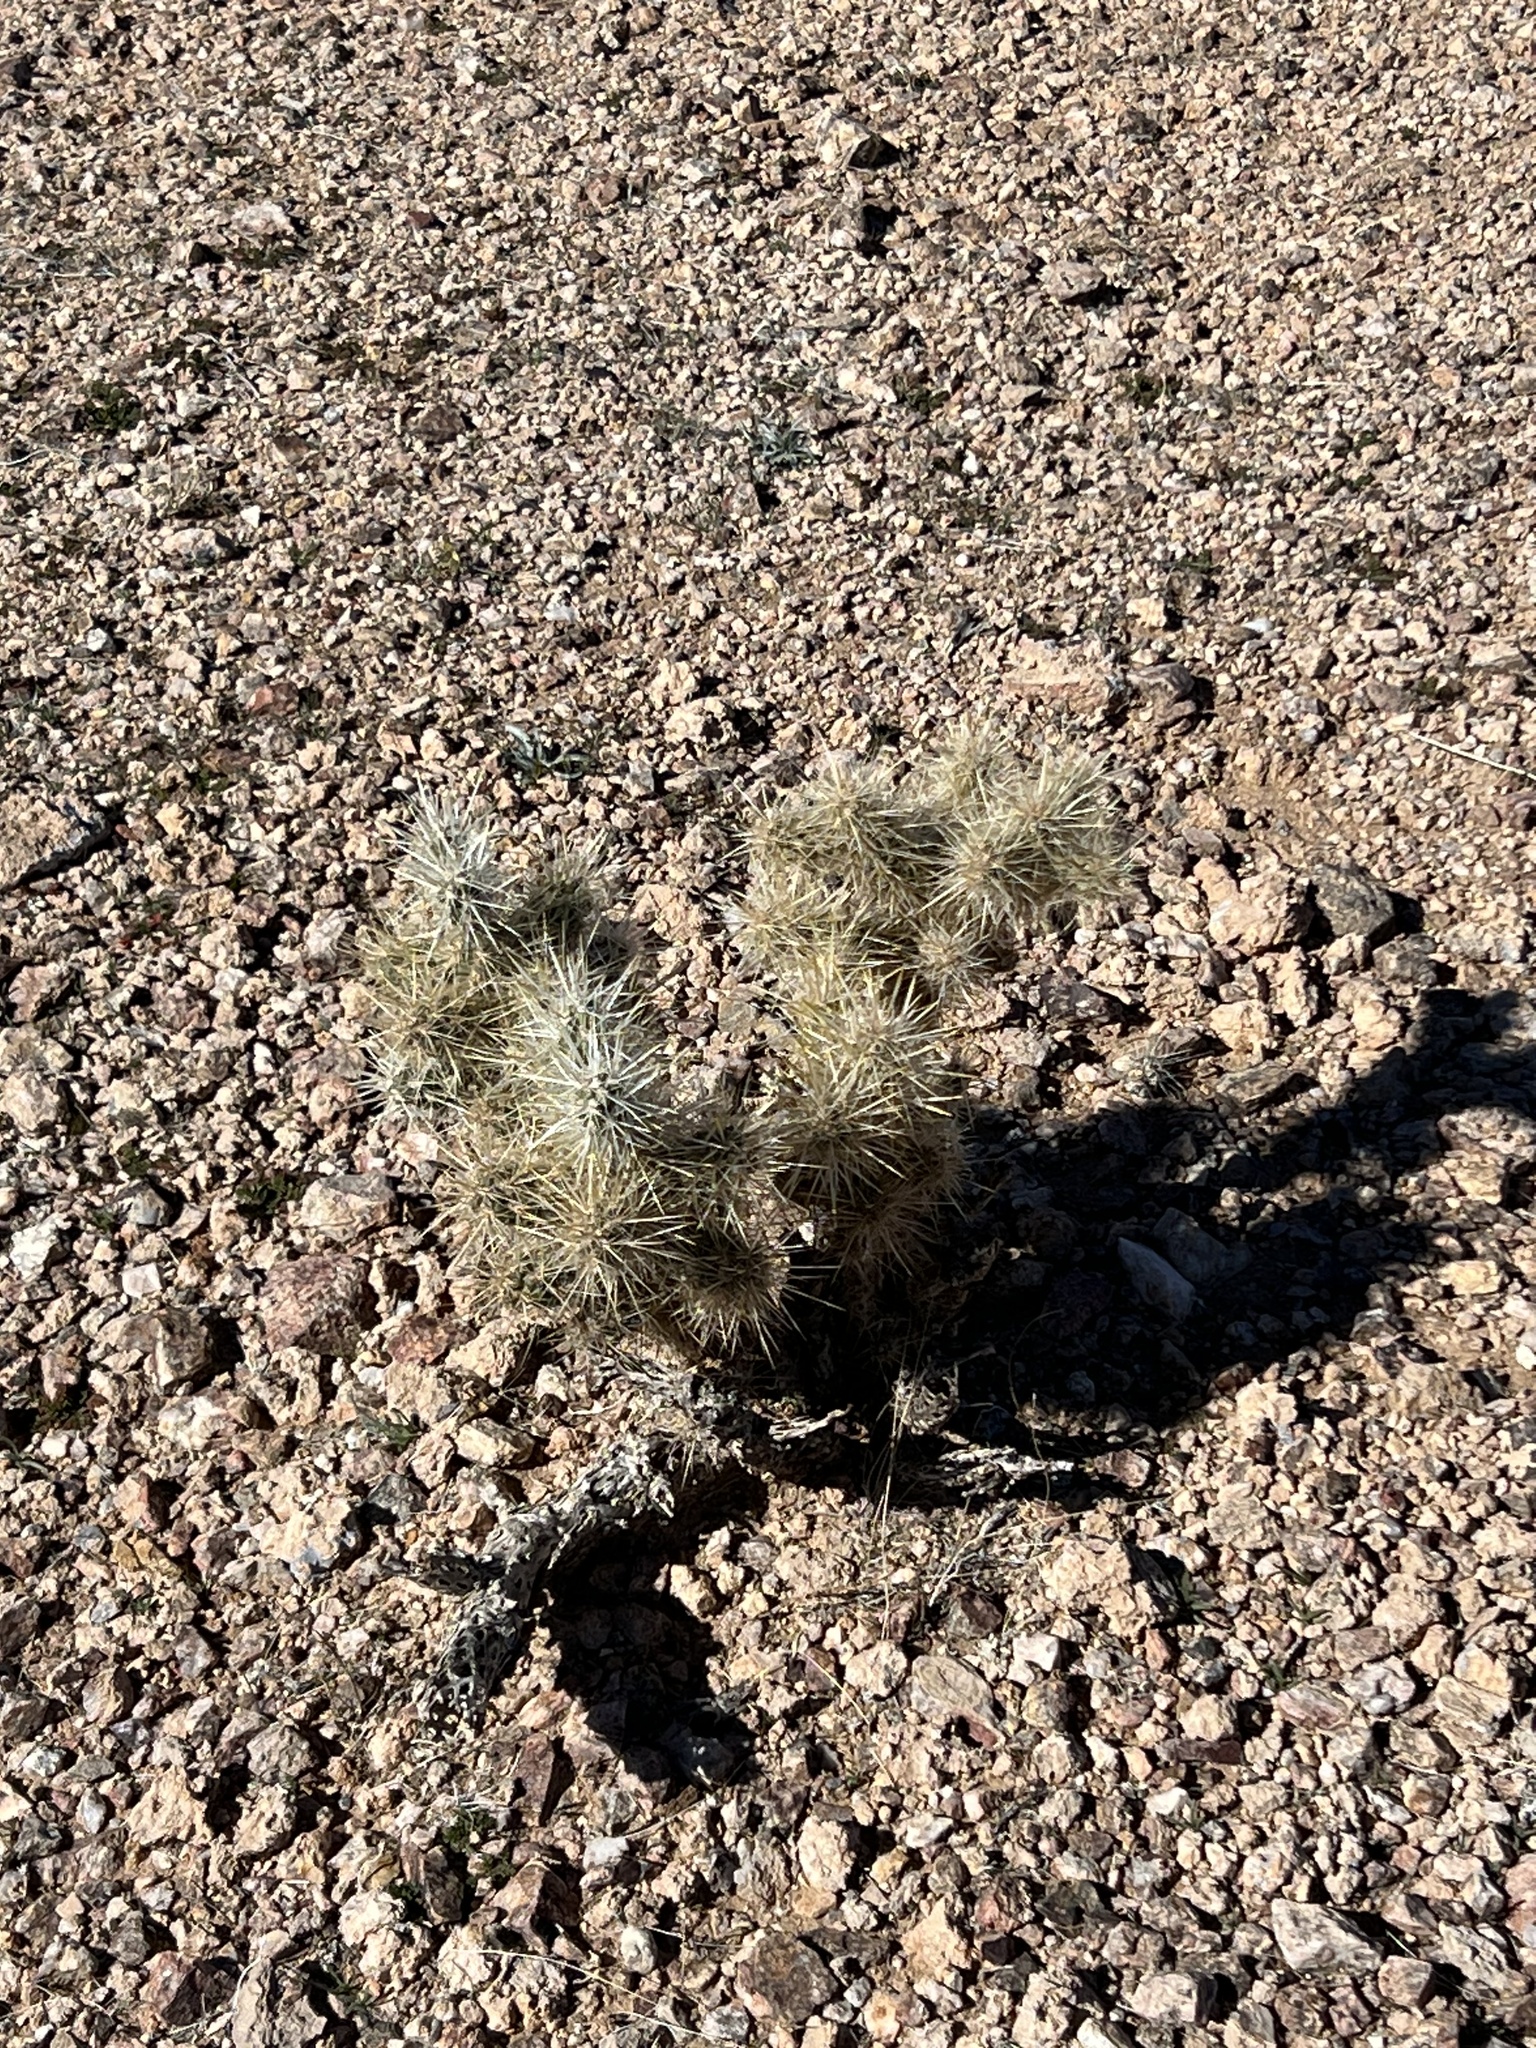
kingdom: Plantae
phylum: Tracheophyta
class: Magnoliopsida
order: Caryophyllales
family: Cactaceae
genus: Cylindropuntia
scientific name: Cylindropuntia echinocarpa
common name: Ground cholla
